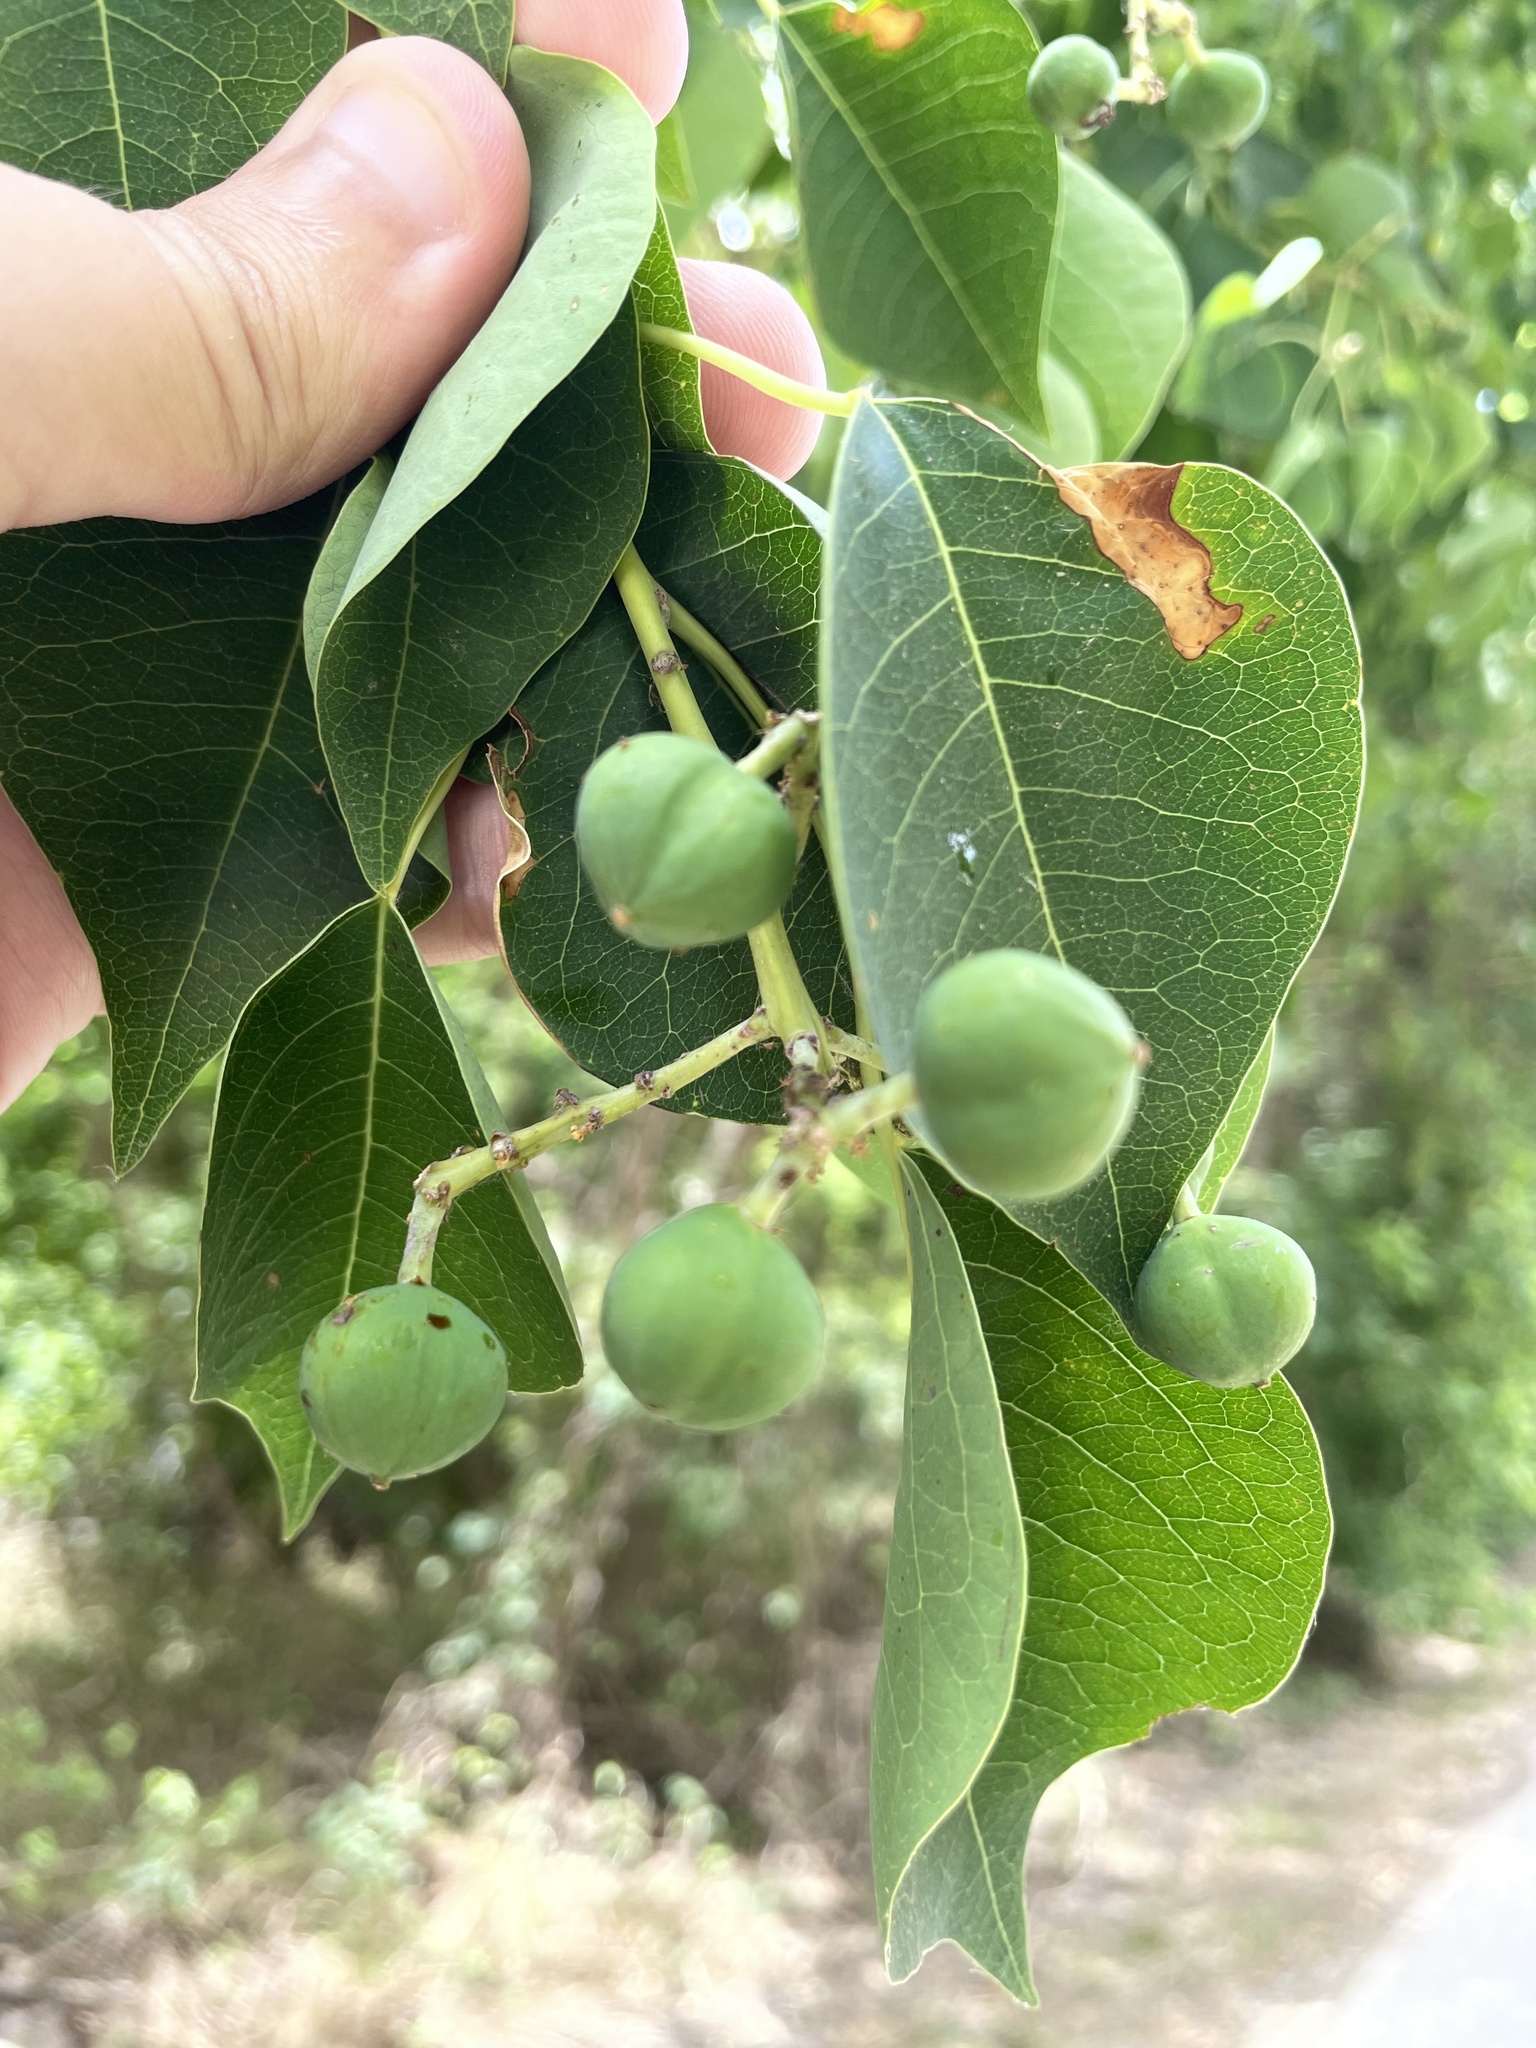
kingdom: Plantae
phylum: Tracheophyta
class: Magnoliopsida
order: Malpighiales
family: Euphorbiaceae
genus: Triadica
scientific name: Triadica sebifera
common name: Chinese tallow
